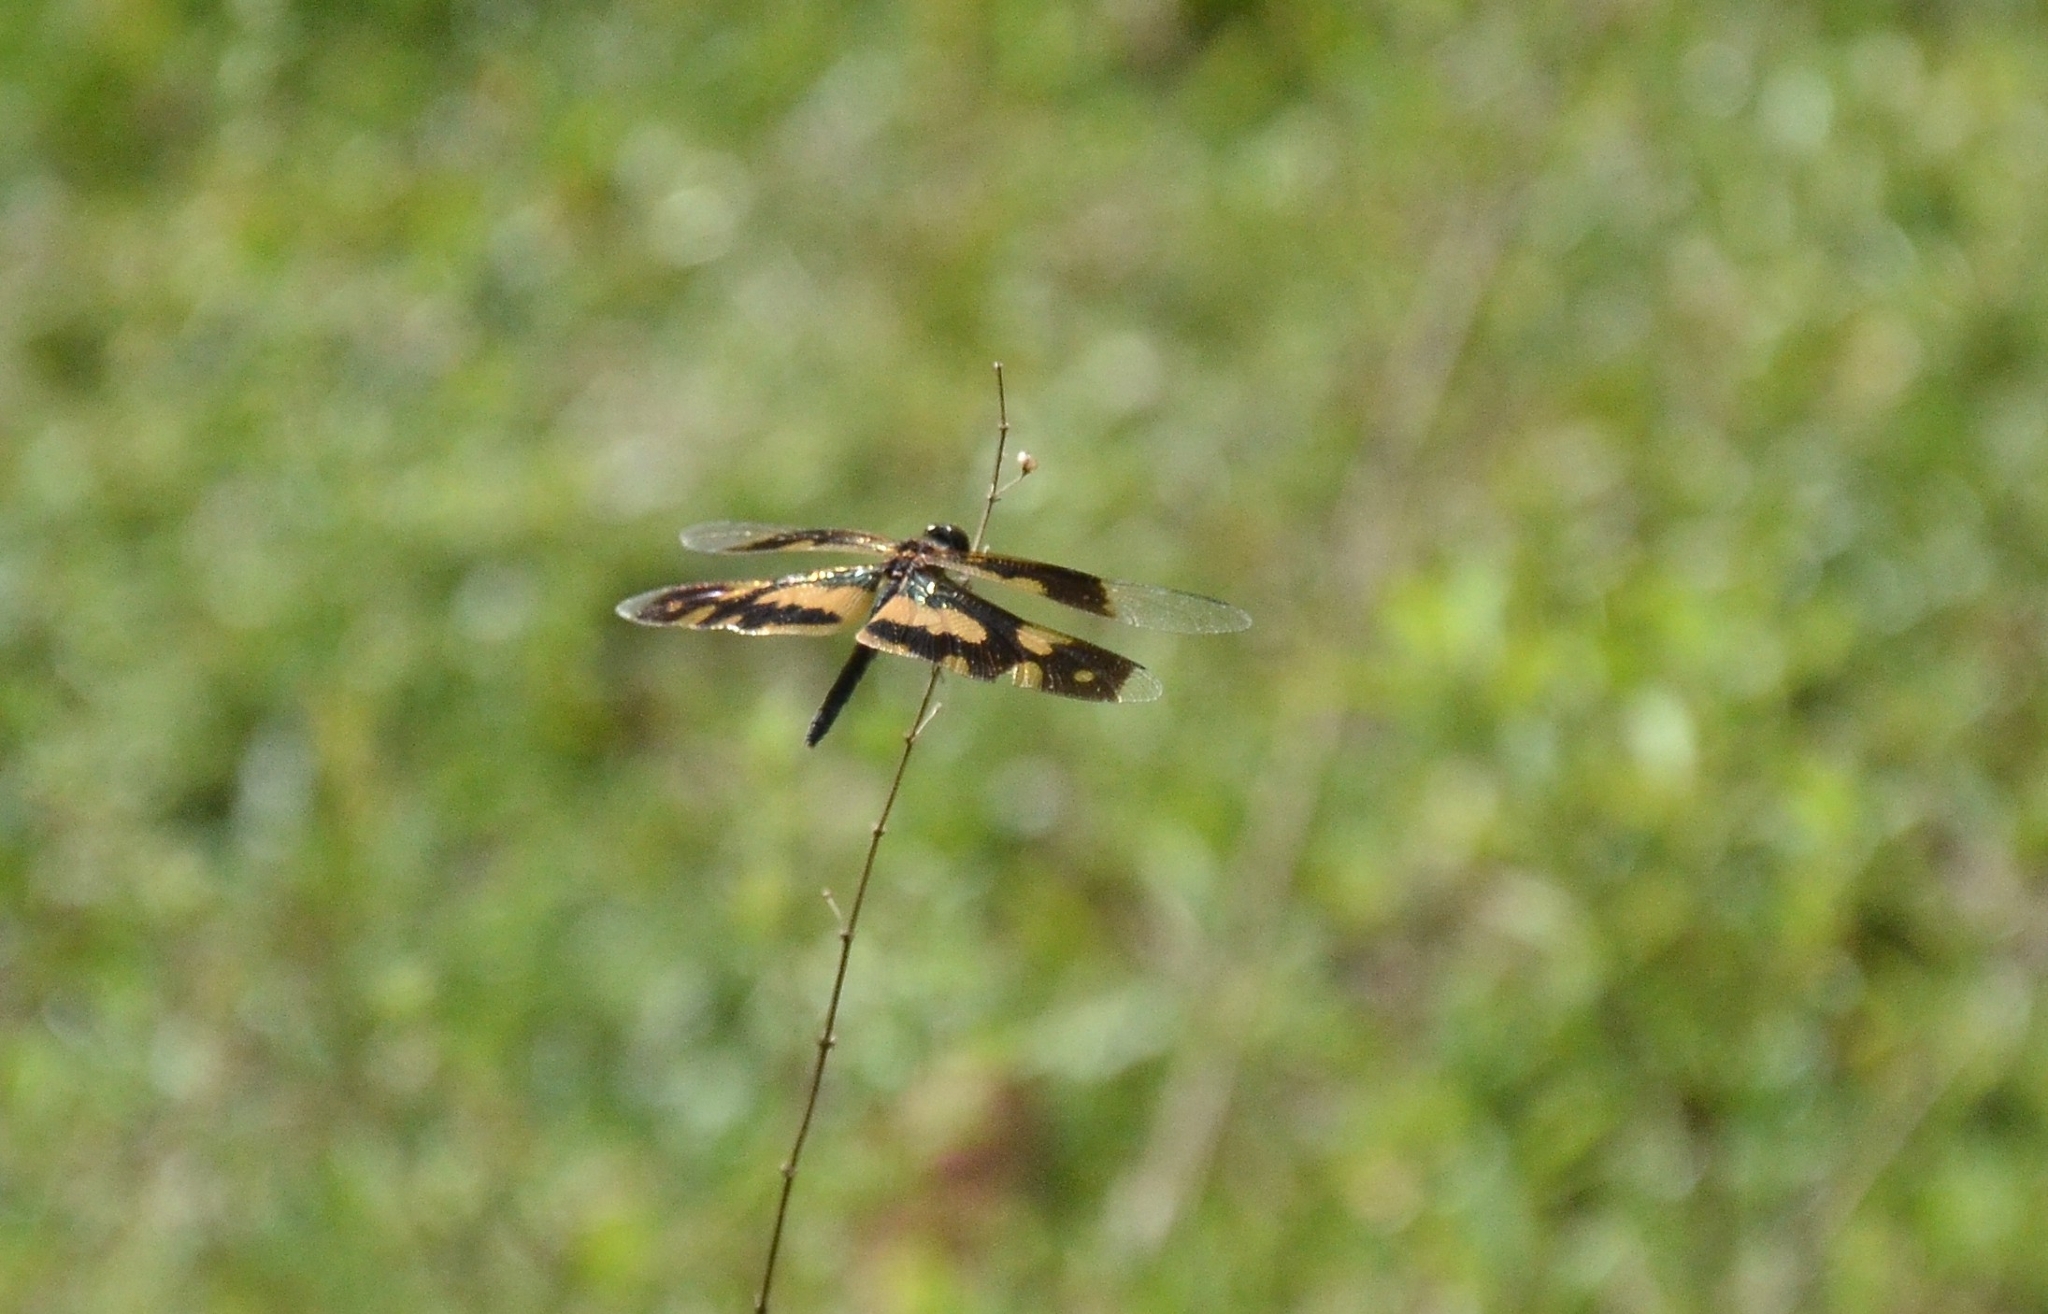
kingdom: Animalia
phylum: Arthropoda
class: Insecta
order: Odonata
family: Libellulidae
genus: Rhyothemis
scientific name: Rhyothemis variegata
